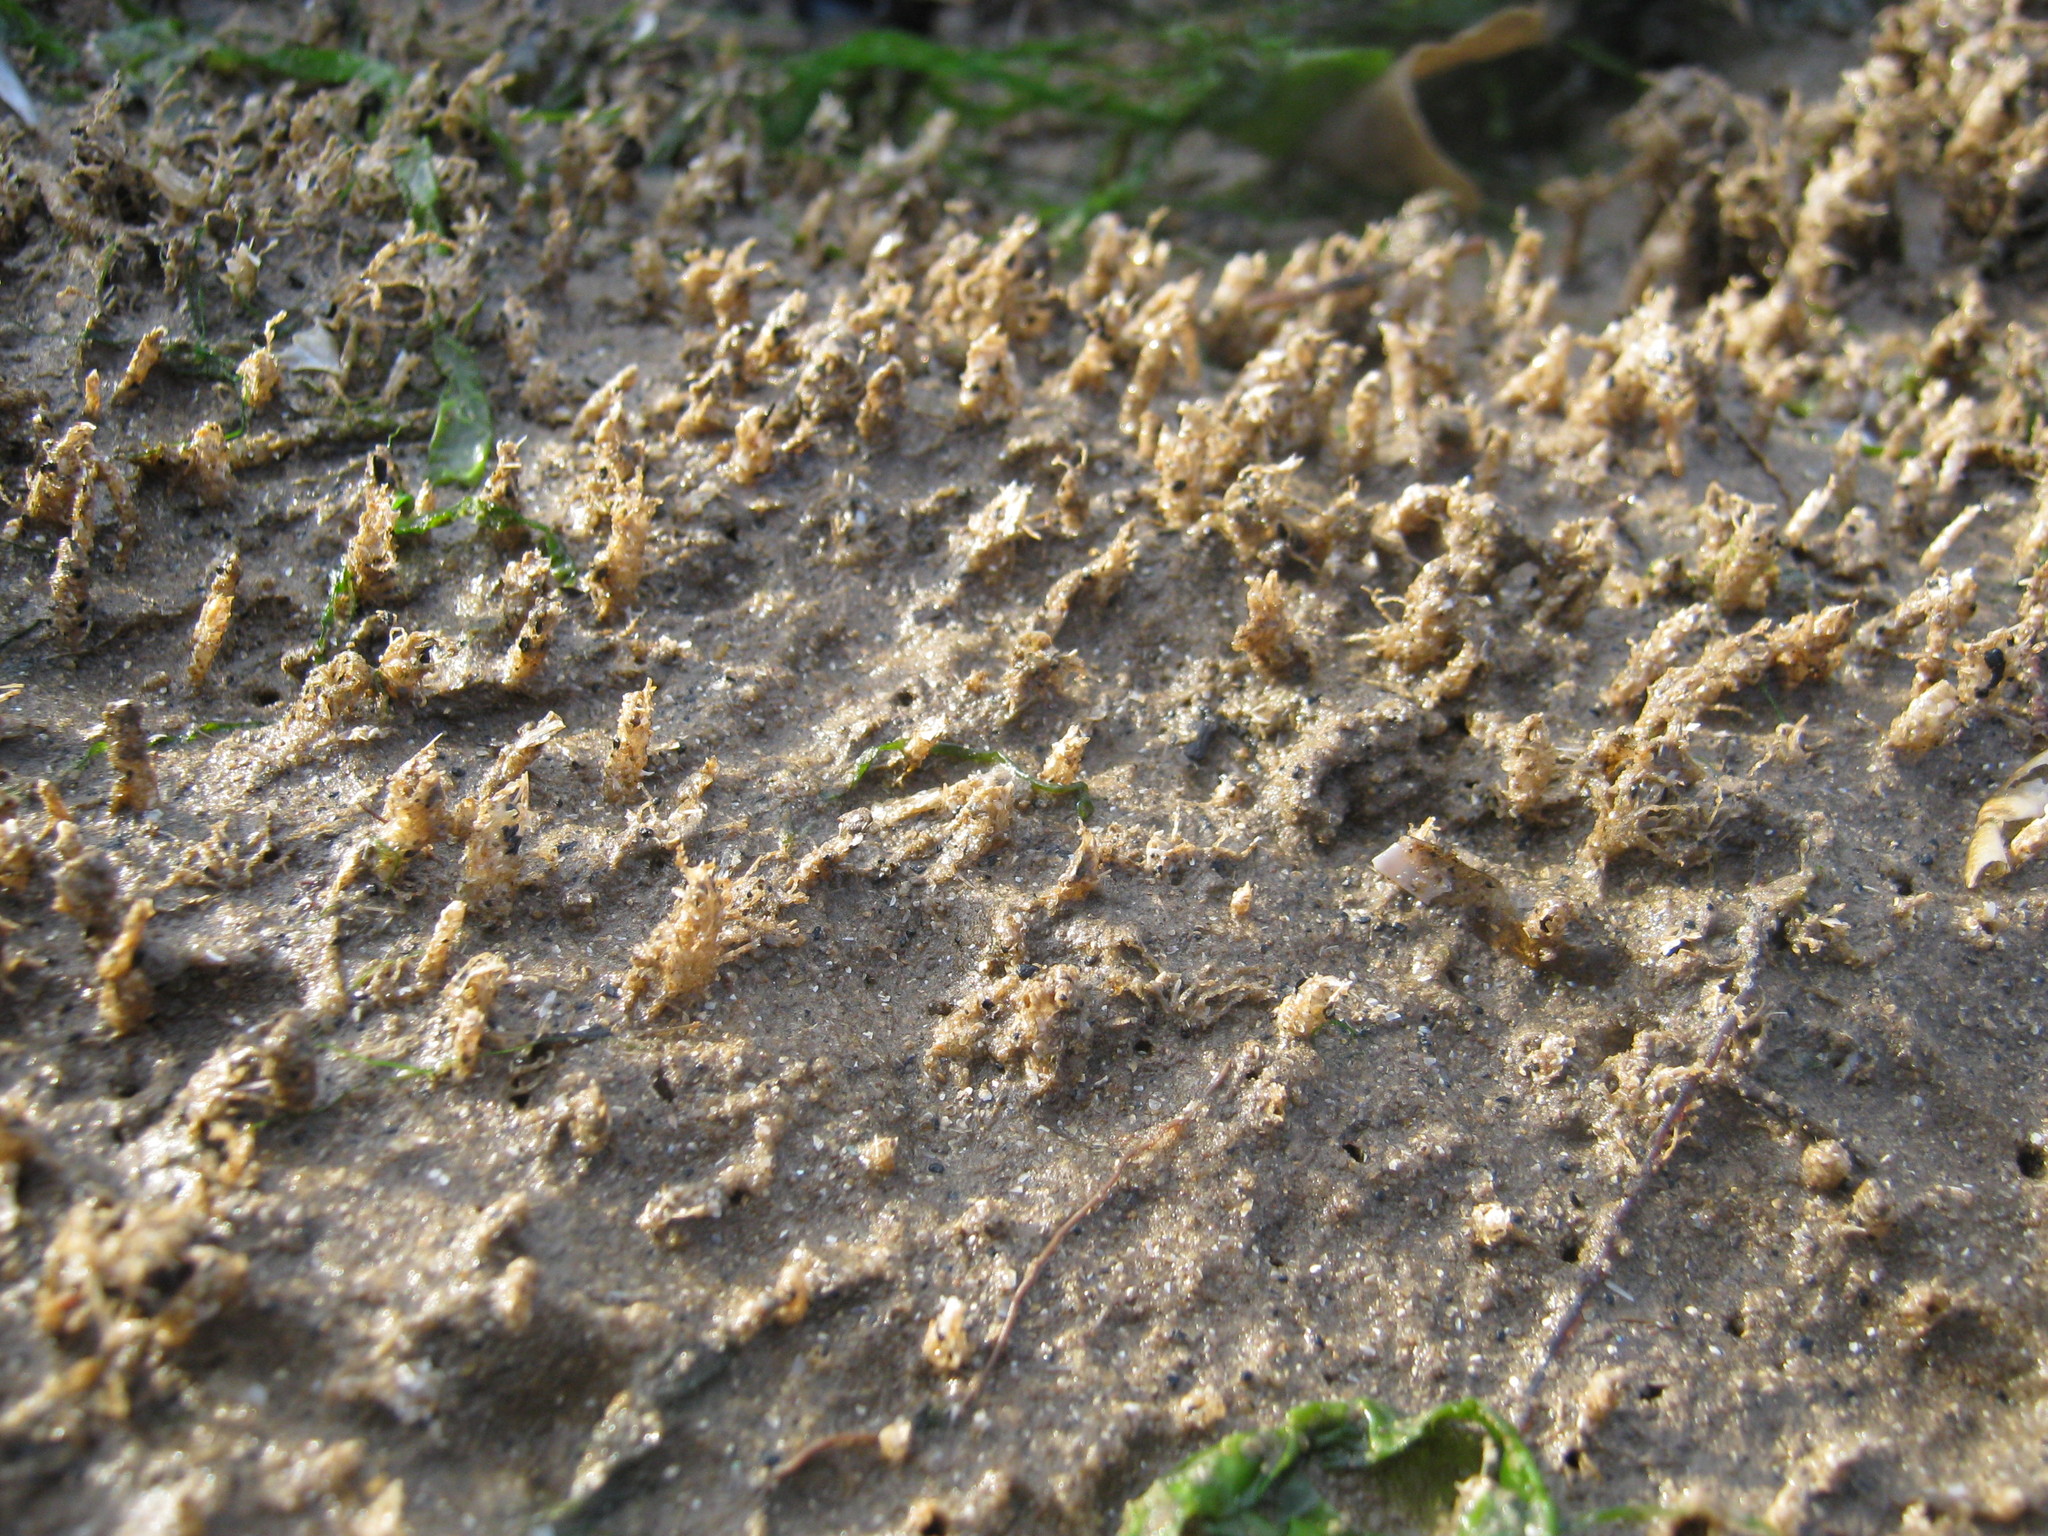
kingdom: Animalia
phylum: Annelida
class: Polychaeta
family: Terebellidae
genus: Lanice
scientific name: Lanice conchilega
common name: Sand mason
